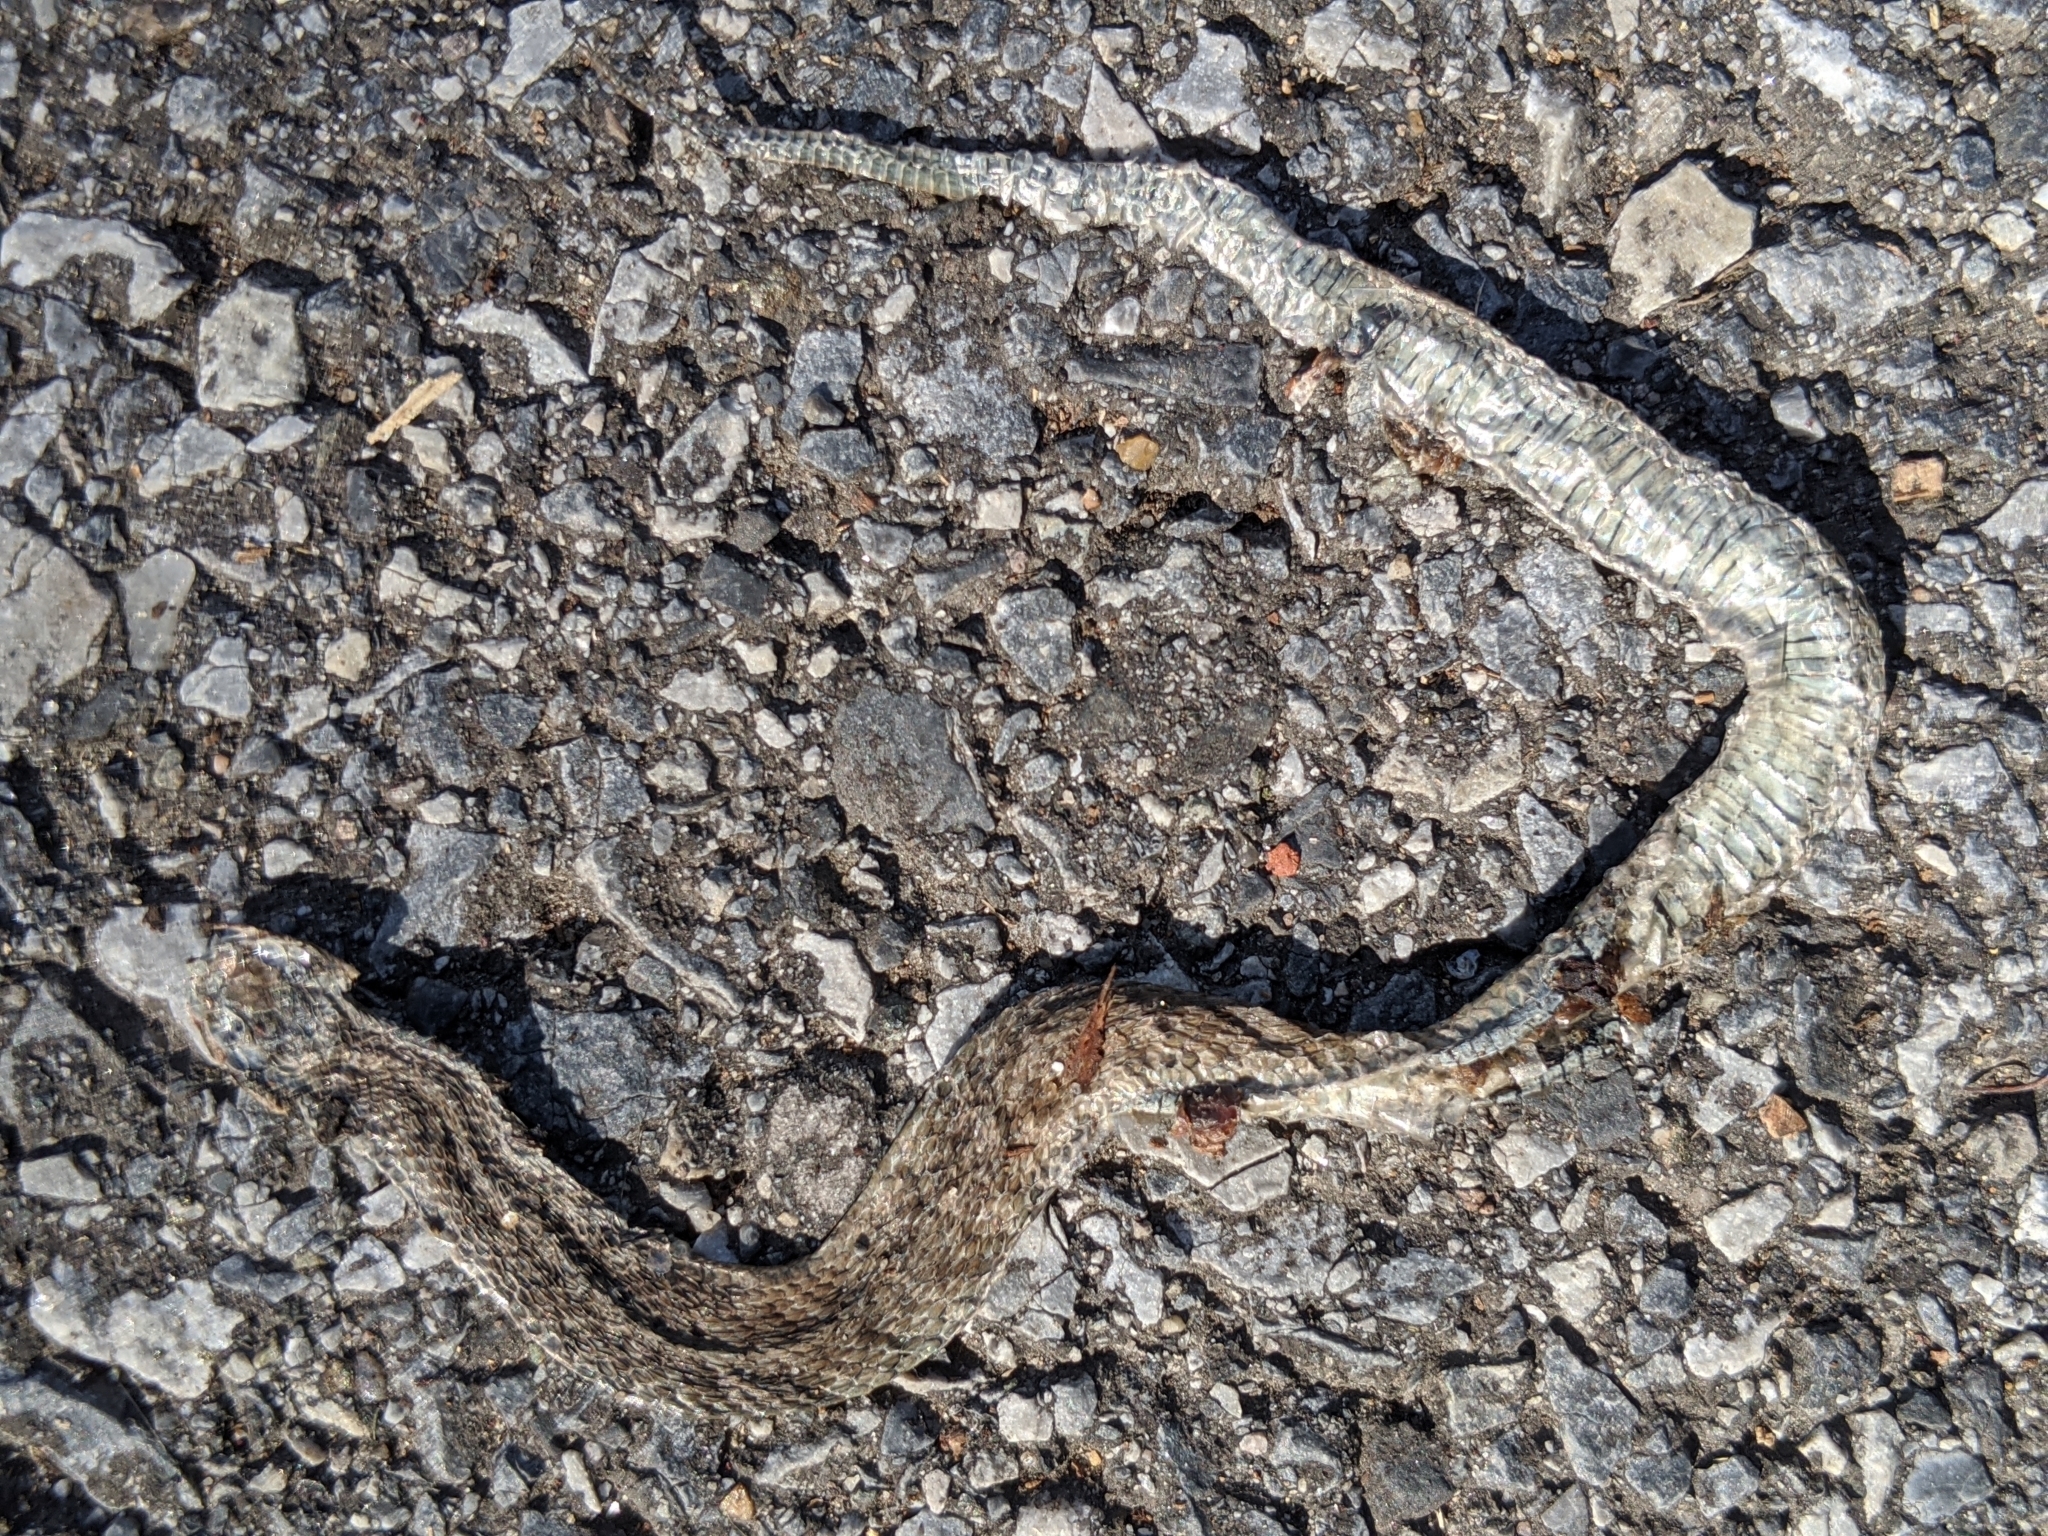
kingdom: Animalia
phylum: Chordata
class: Squamata
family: Colubridae
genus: Storeria
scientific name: Storeria dekayi
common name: (dekay’s) brown snake
